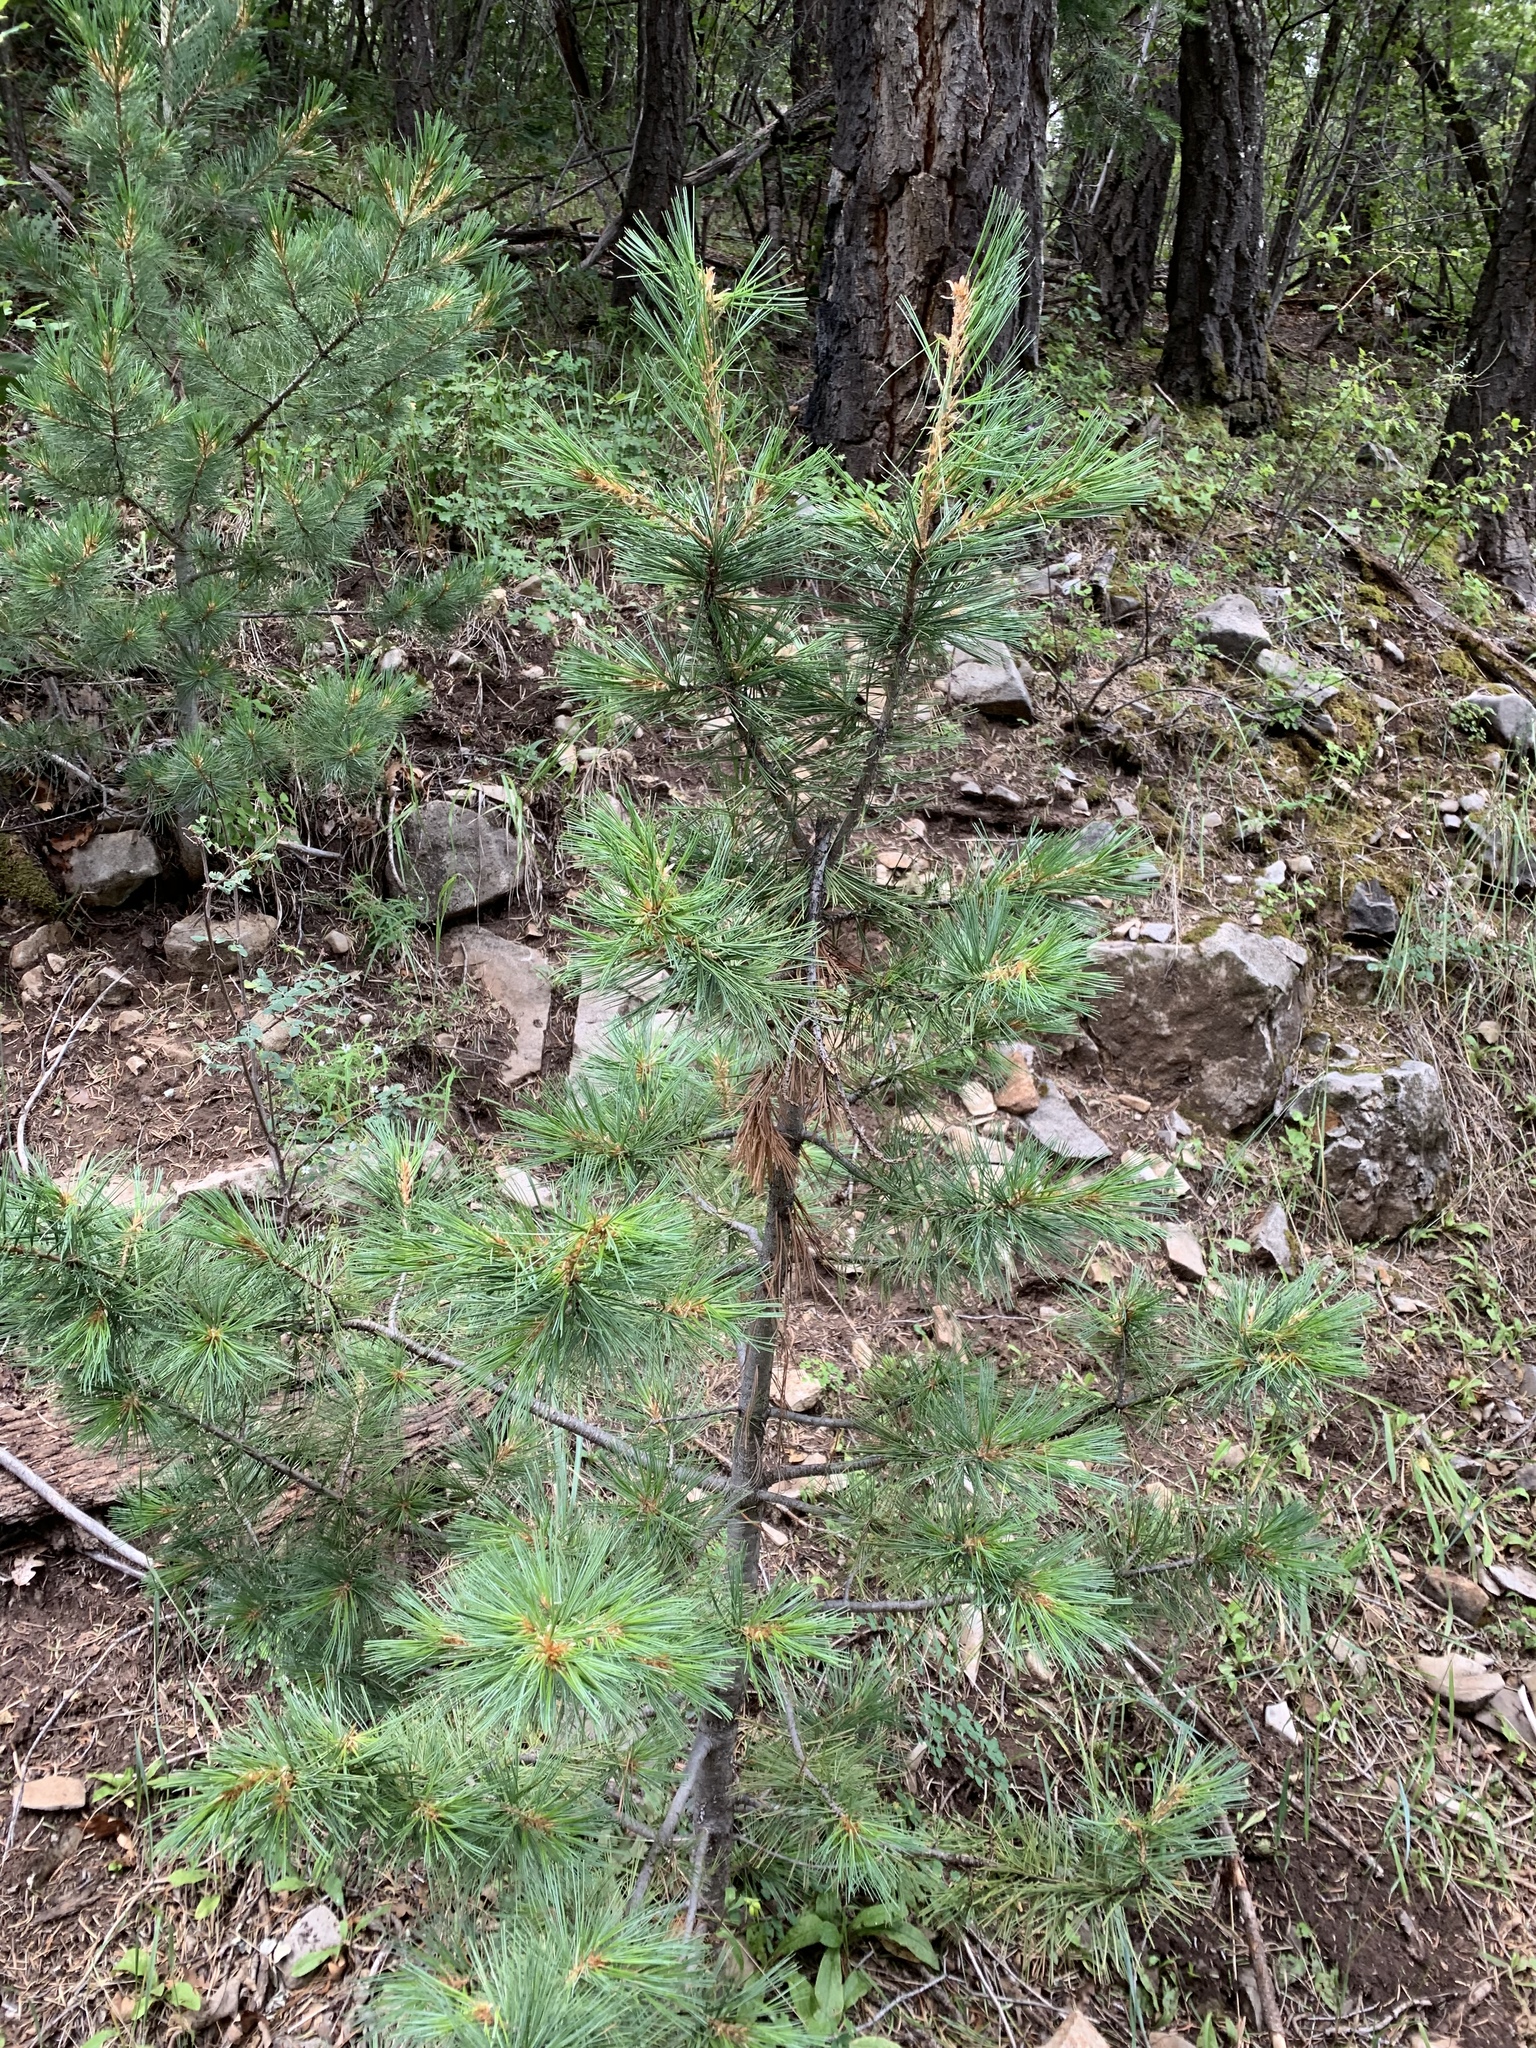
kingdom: Plantae
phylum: Tracheophyta
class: Pinopsida
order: Pinales
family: Pinaceae
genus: Pinus
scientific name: Pinus strobiformis
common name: Southwestern white pine
